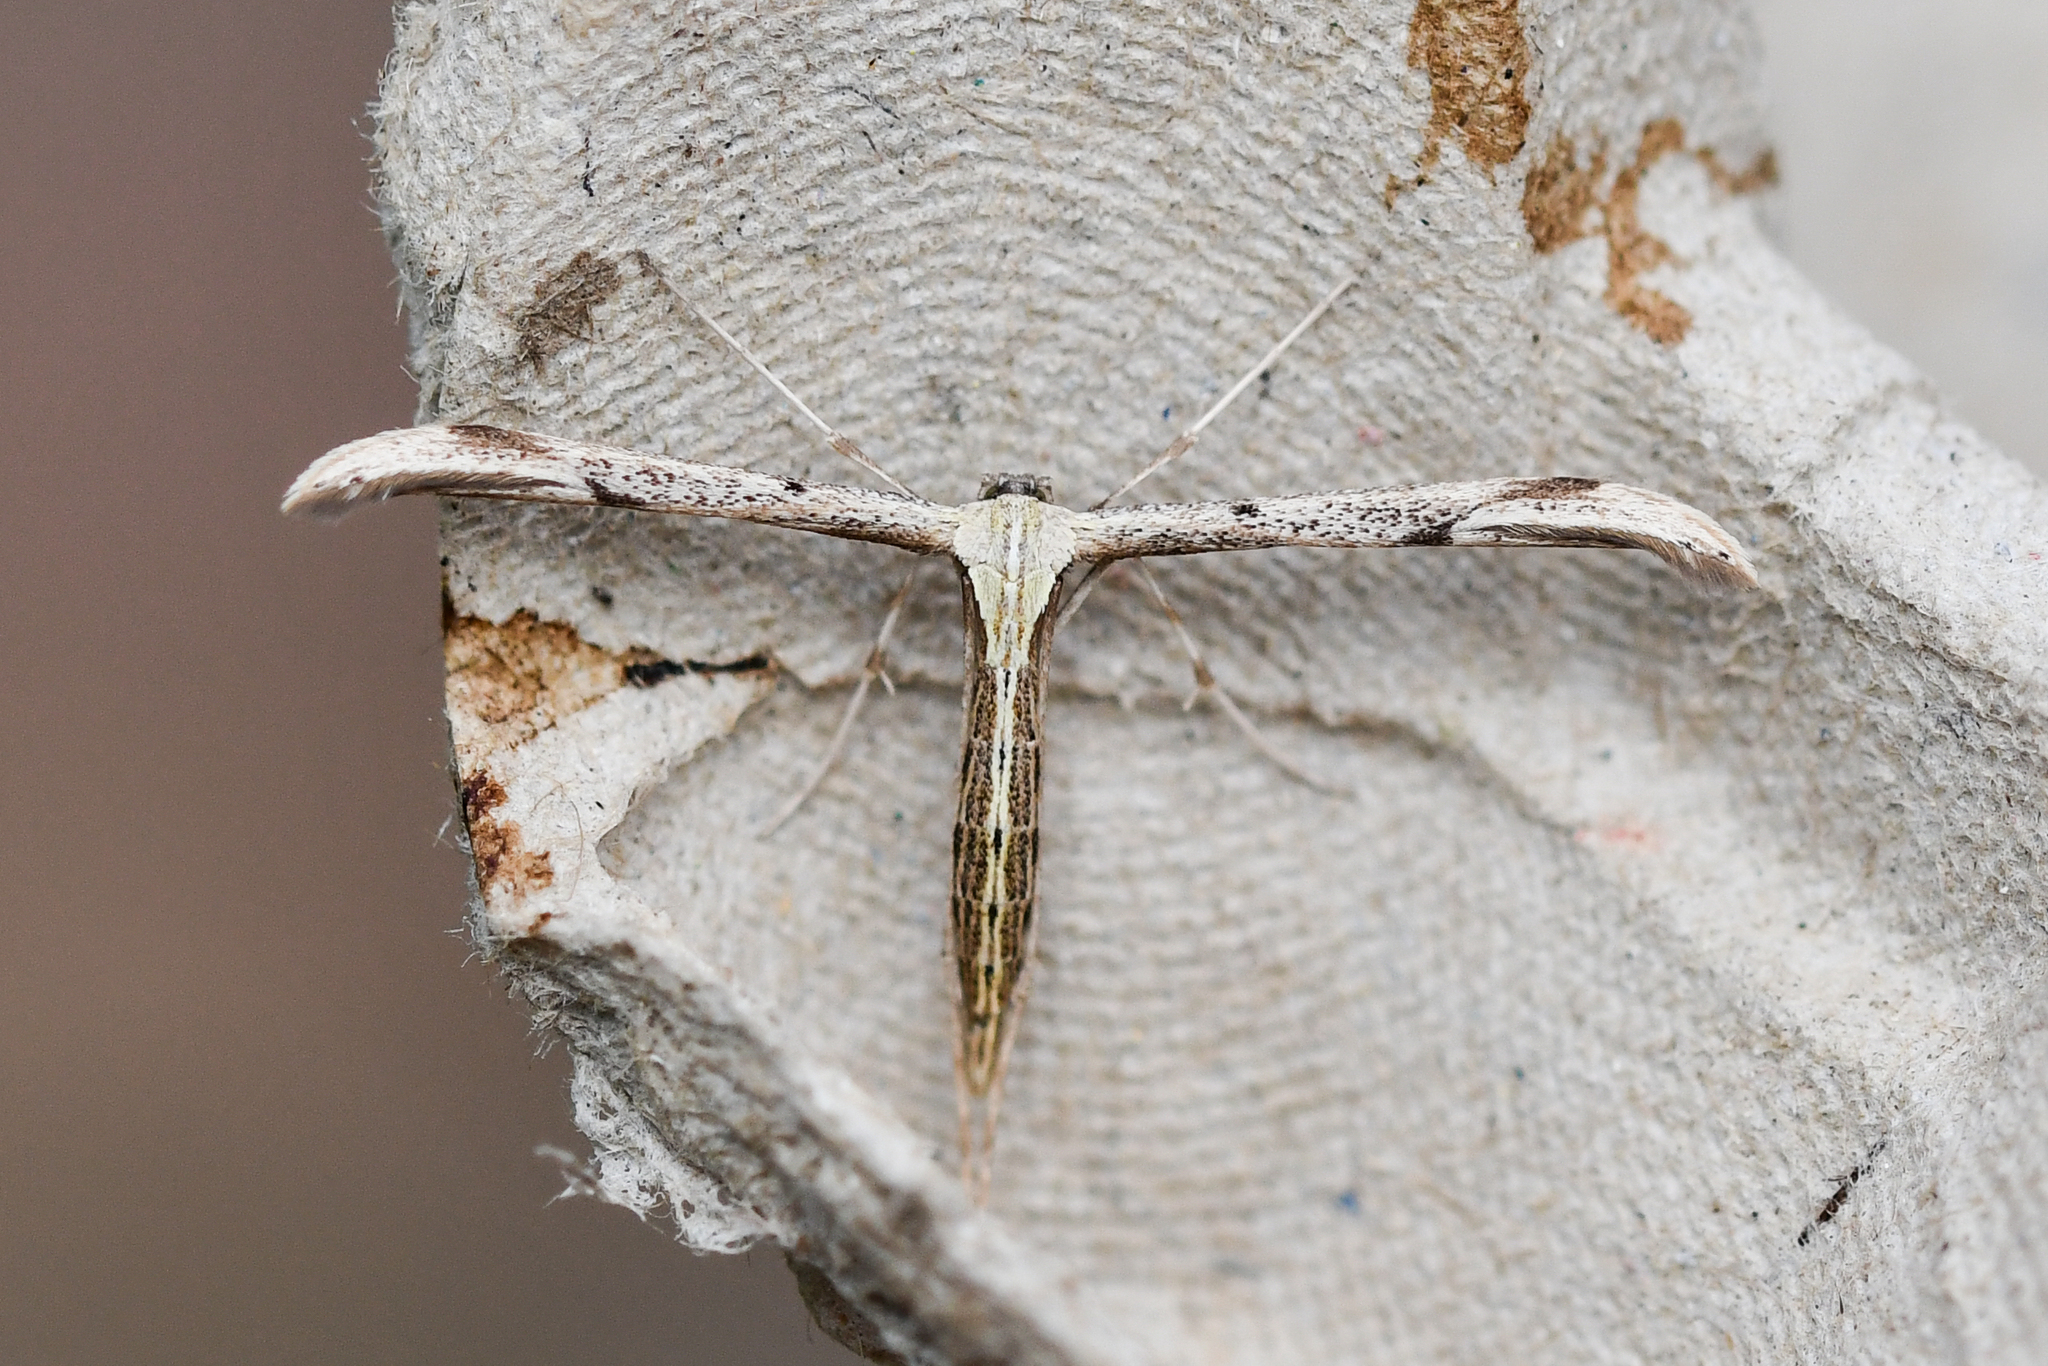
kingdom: Animalia
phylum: Arthropoda
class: Insecta
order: Lepidoptera
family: Pterophoridae
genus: Emmelina
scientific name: Emmelina monodactyla
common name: Common plume
